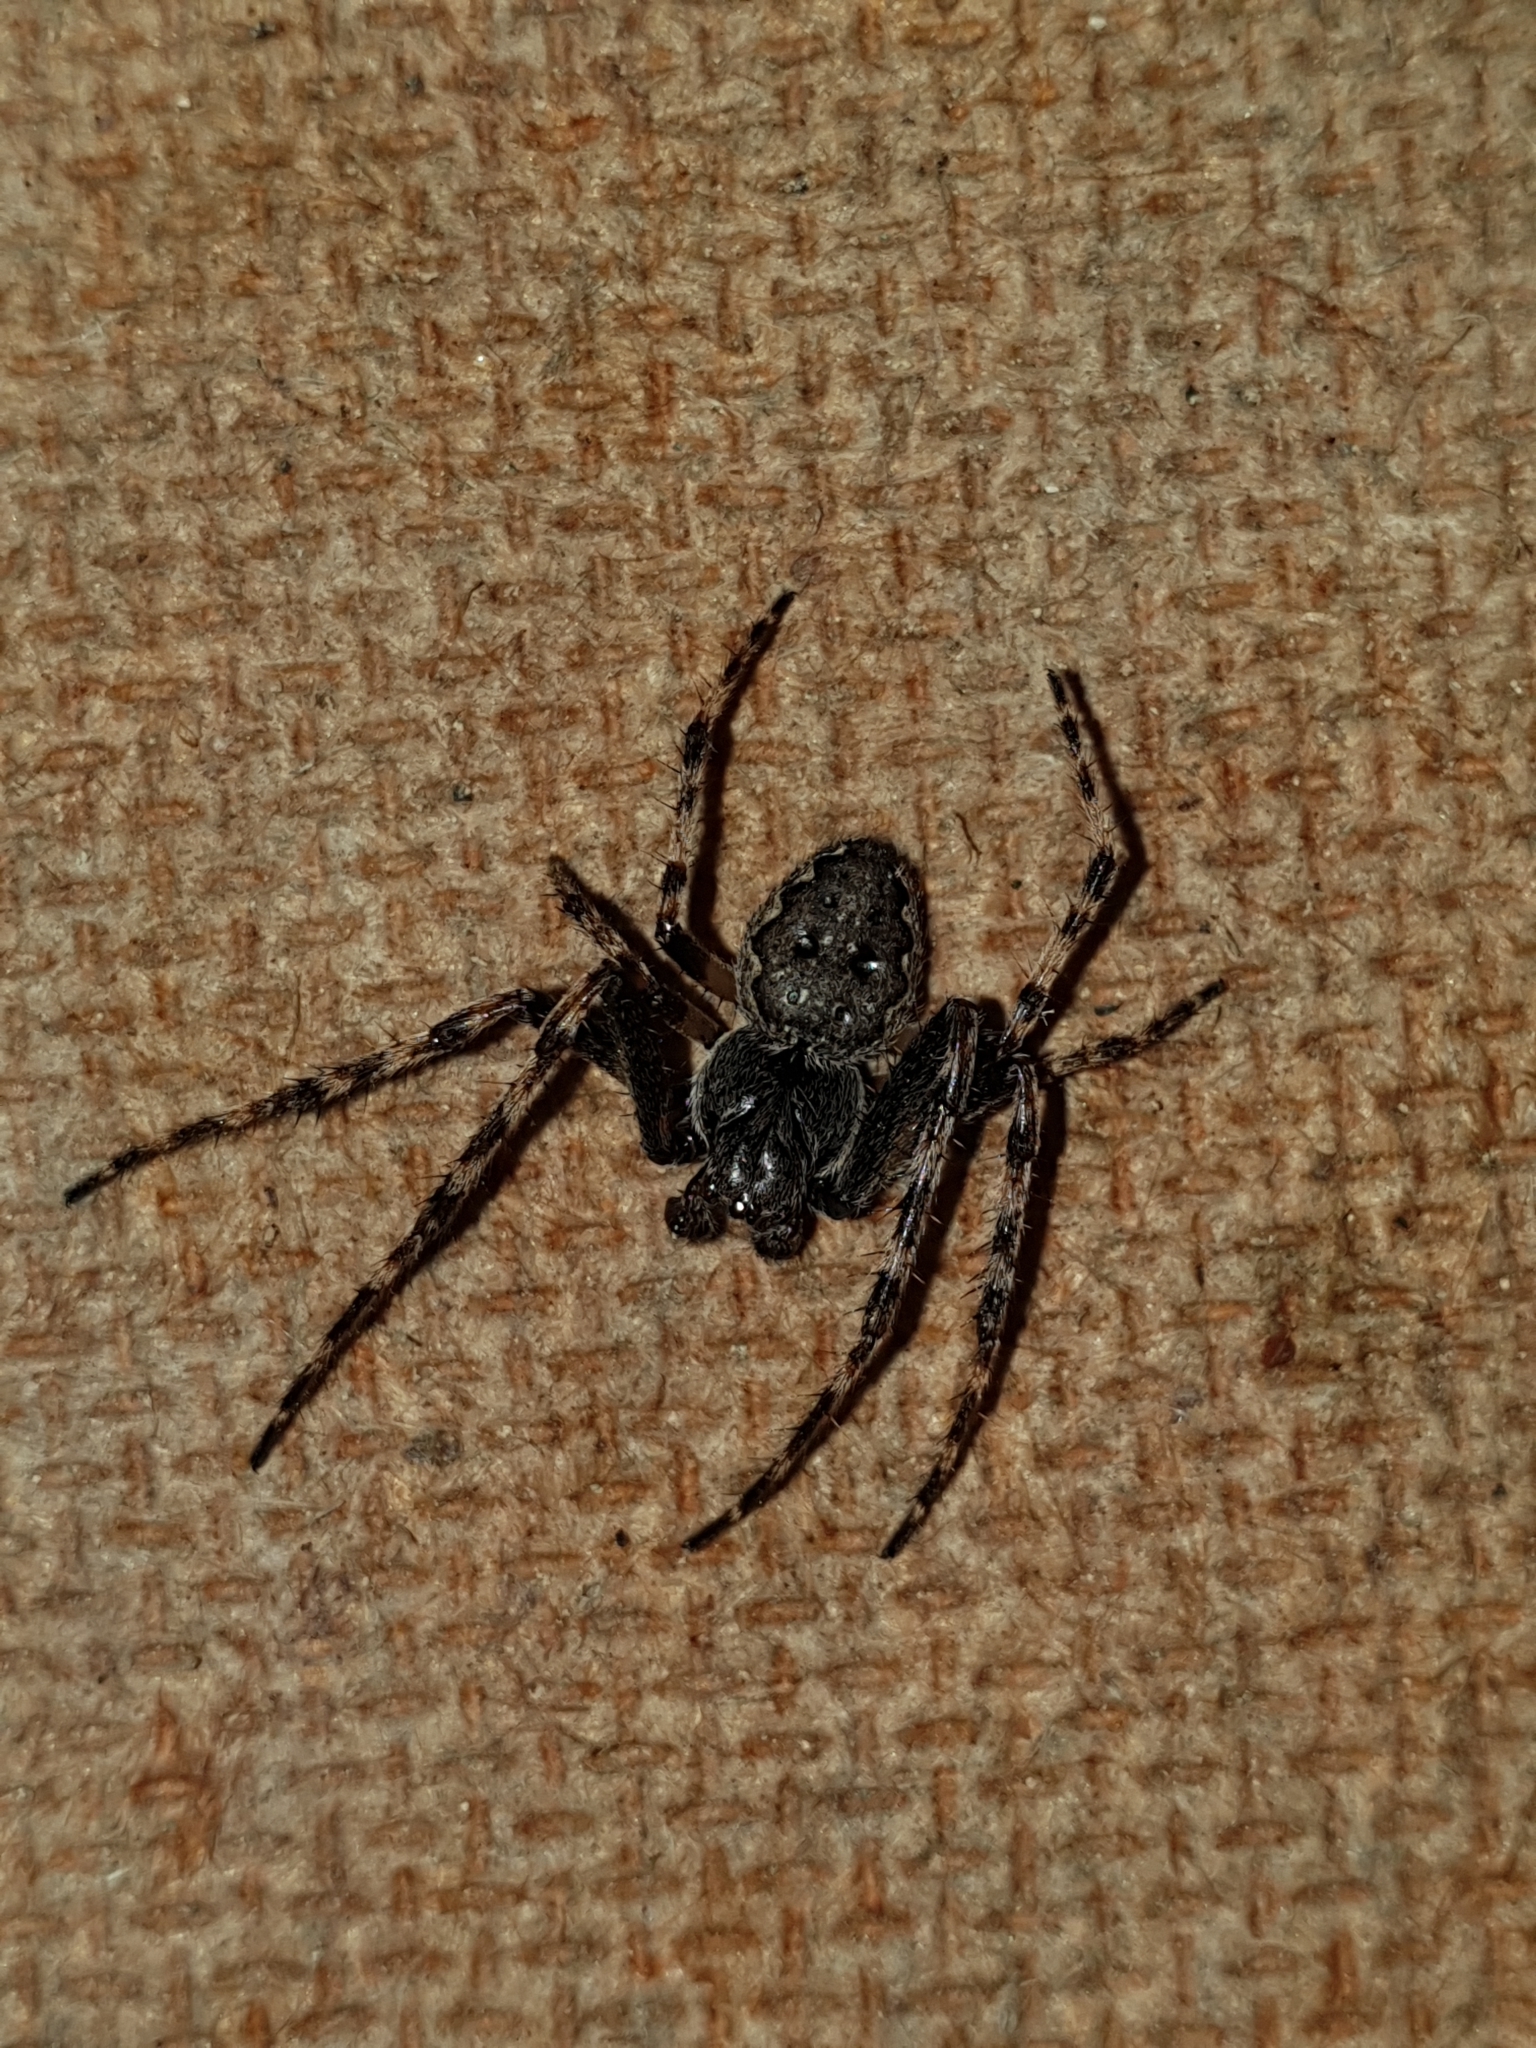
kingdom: Animalia
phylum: Arthropoda
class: Arachnida
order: Araneae
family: Araneidae
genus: Nuctenea
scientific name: Nuctenea umbratica
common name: Toad spider
